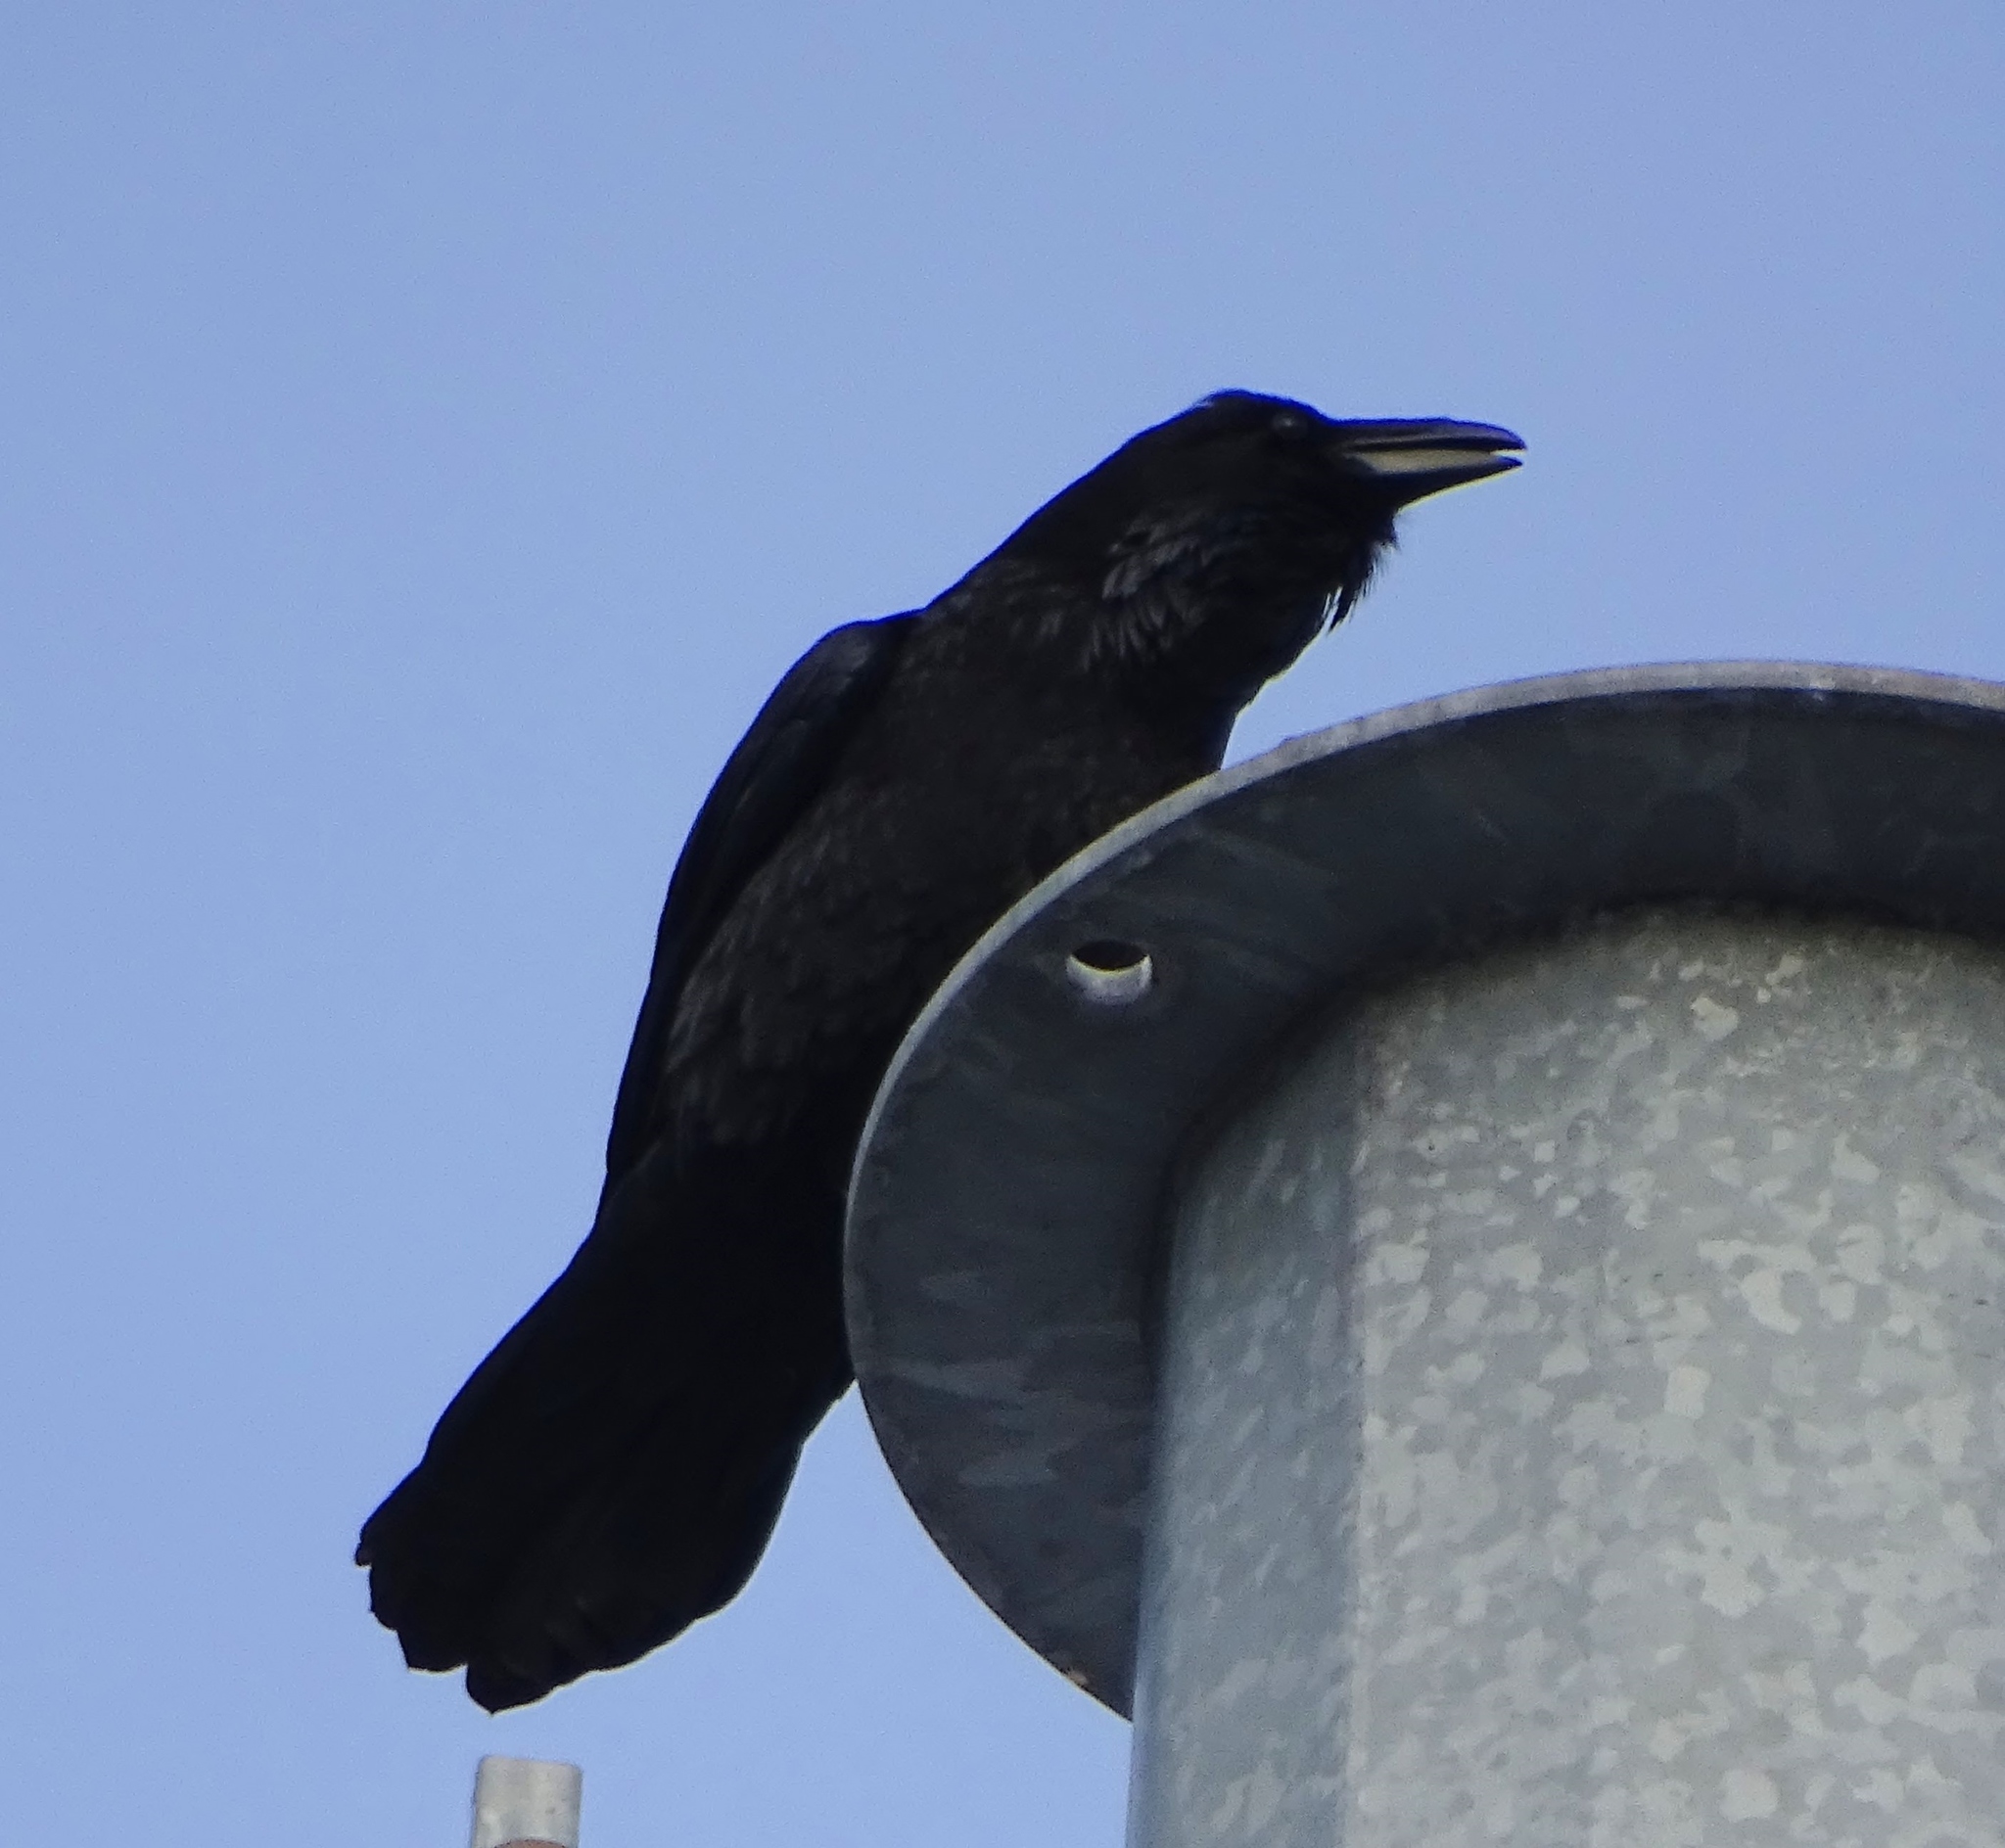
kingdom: Animalia
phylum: Chordata
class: Aves
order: Passeriformes
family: Corvidae
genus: Corvus
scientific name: Corvus corax
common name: Common raven
